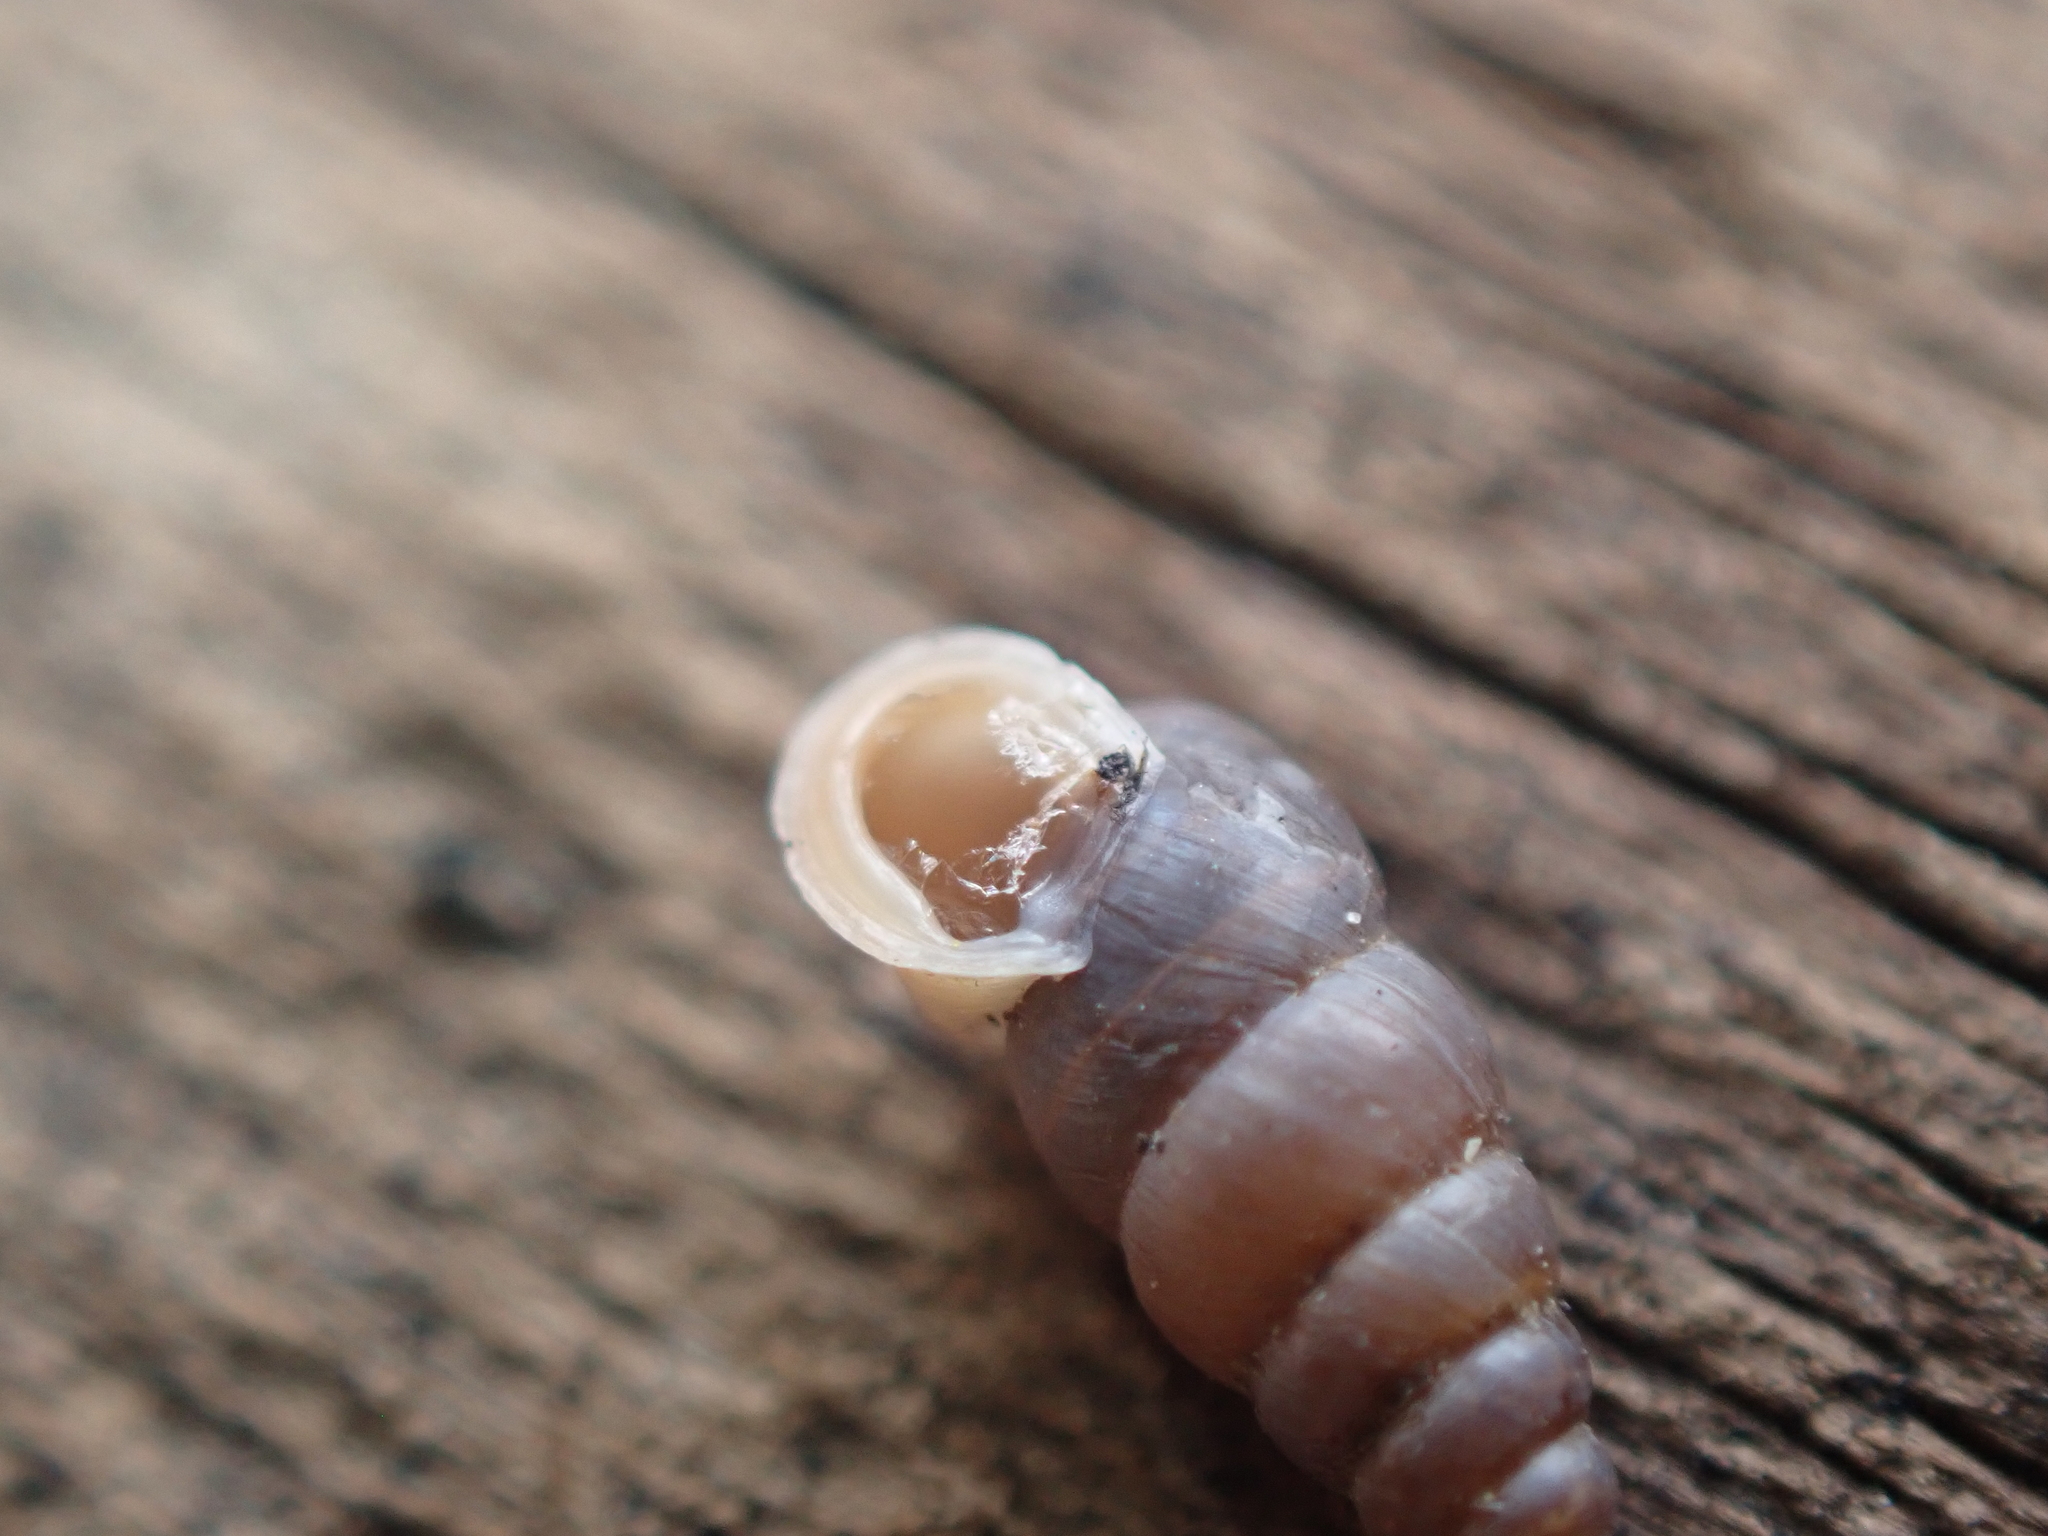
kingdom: Animalia
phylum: Mollusca
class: Gastropoda
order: Stylommatophora
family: Pupillidae
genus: Pupoides
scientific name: Pupoides nitidulus
